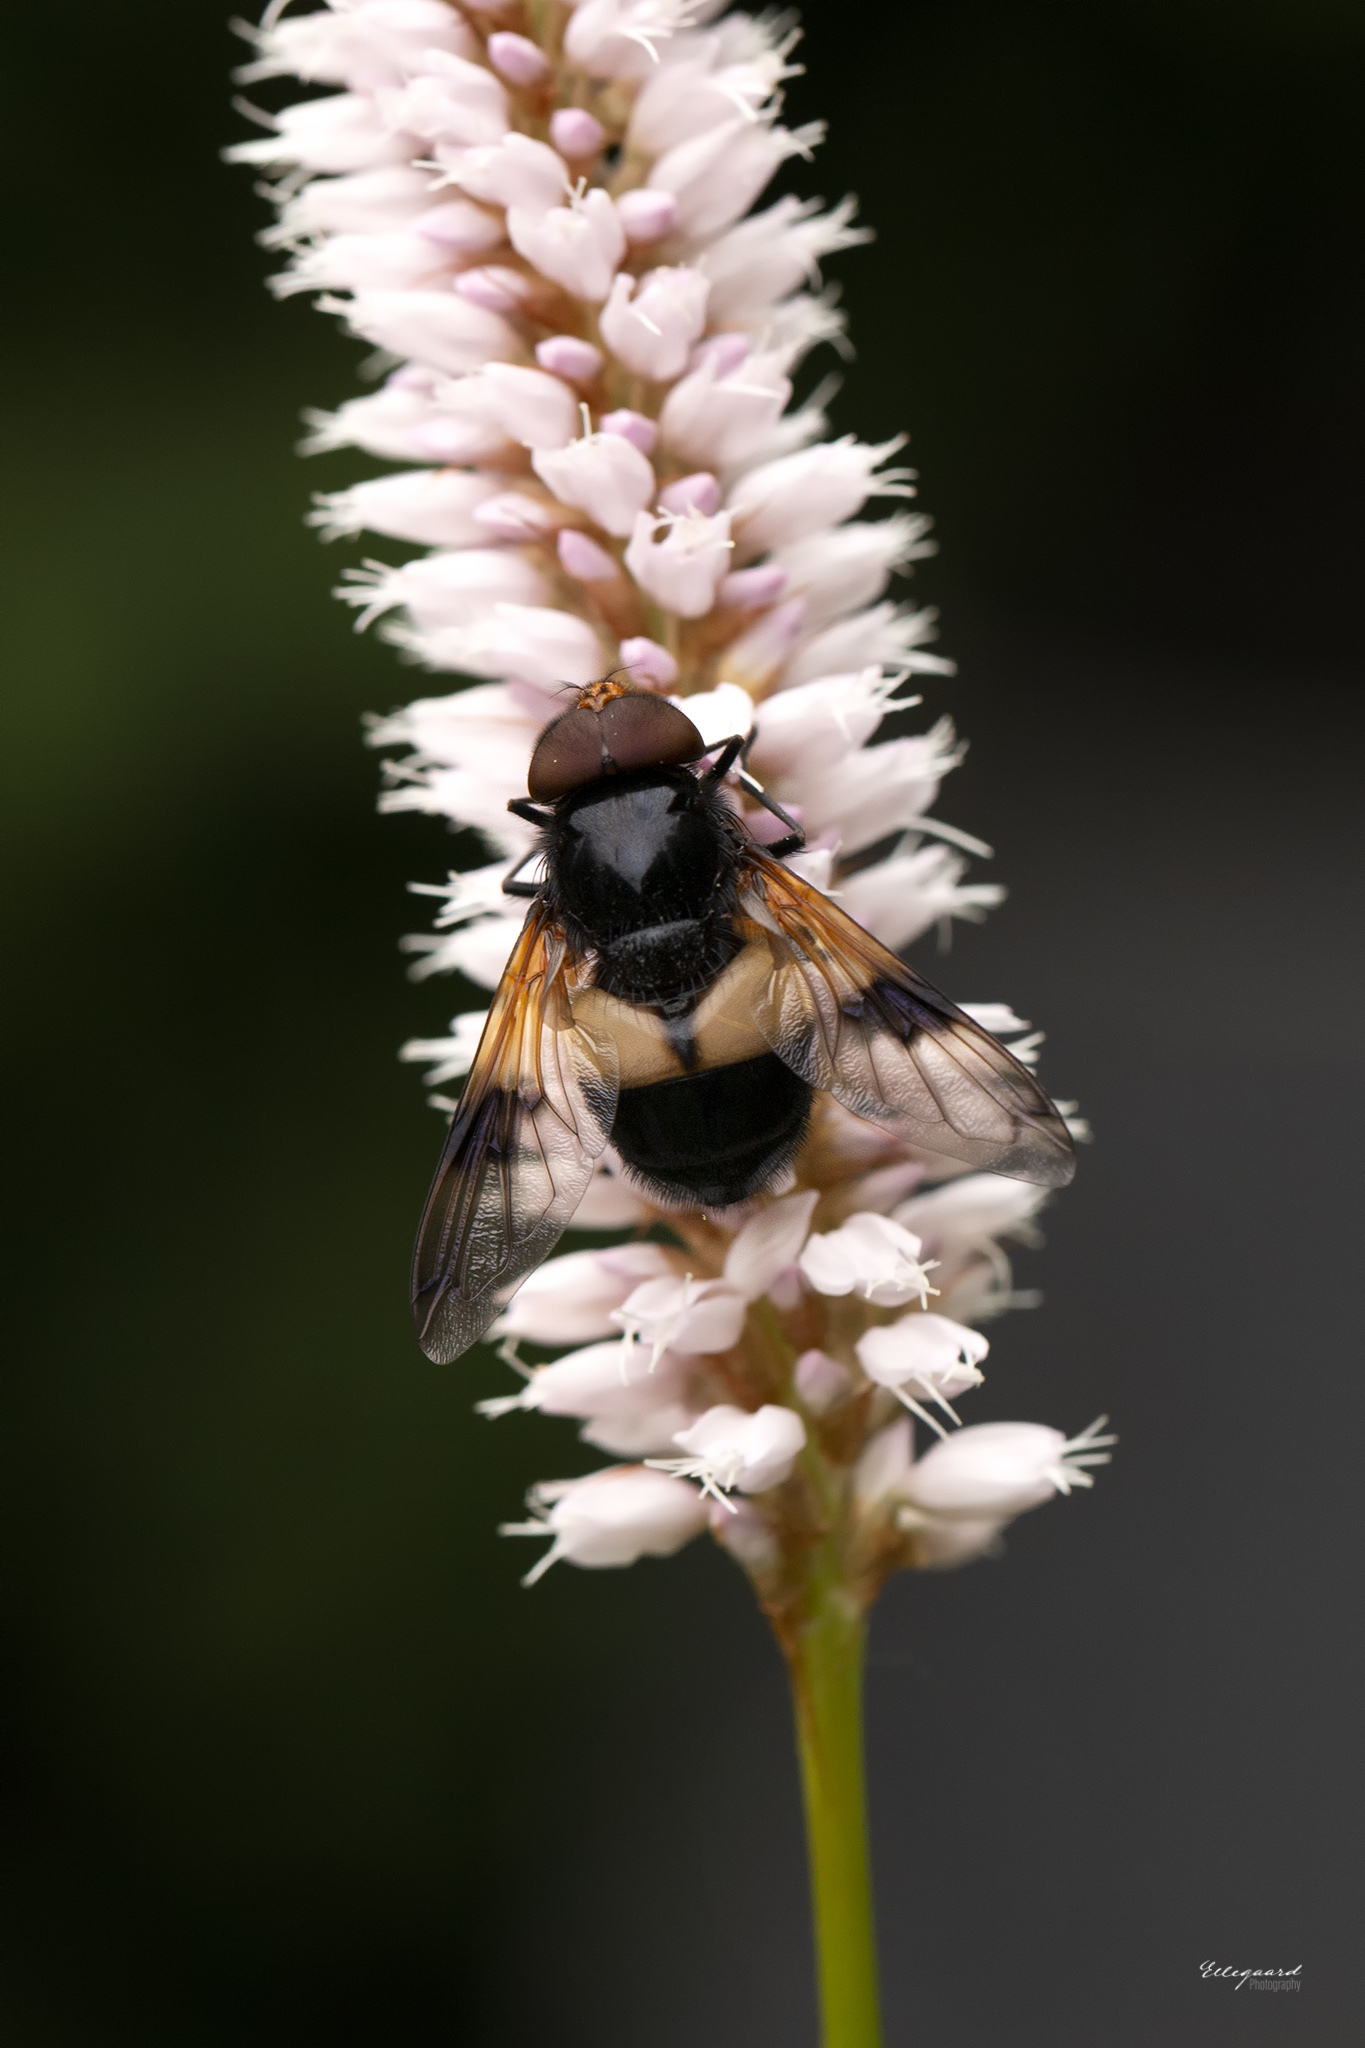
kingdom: Animalia
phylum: Arthropoda
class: Insecta
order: Diptera
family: Syrphidae
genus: Volucella
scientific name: Volucella pellucens
